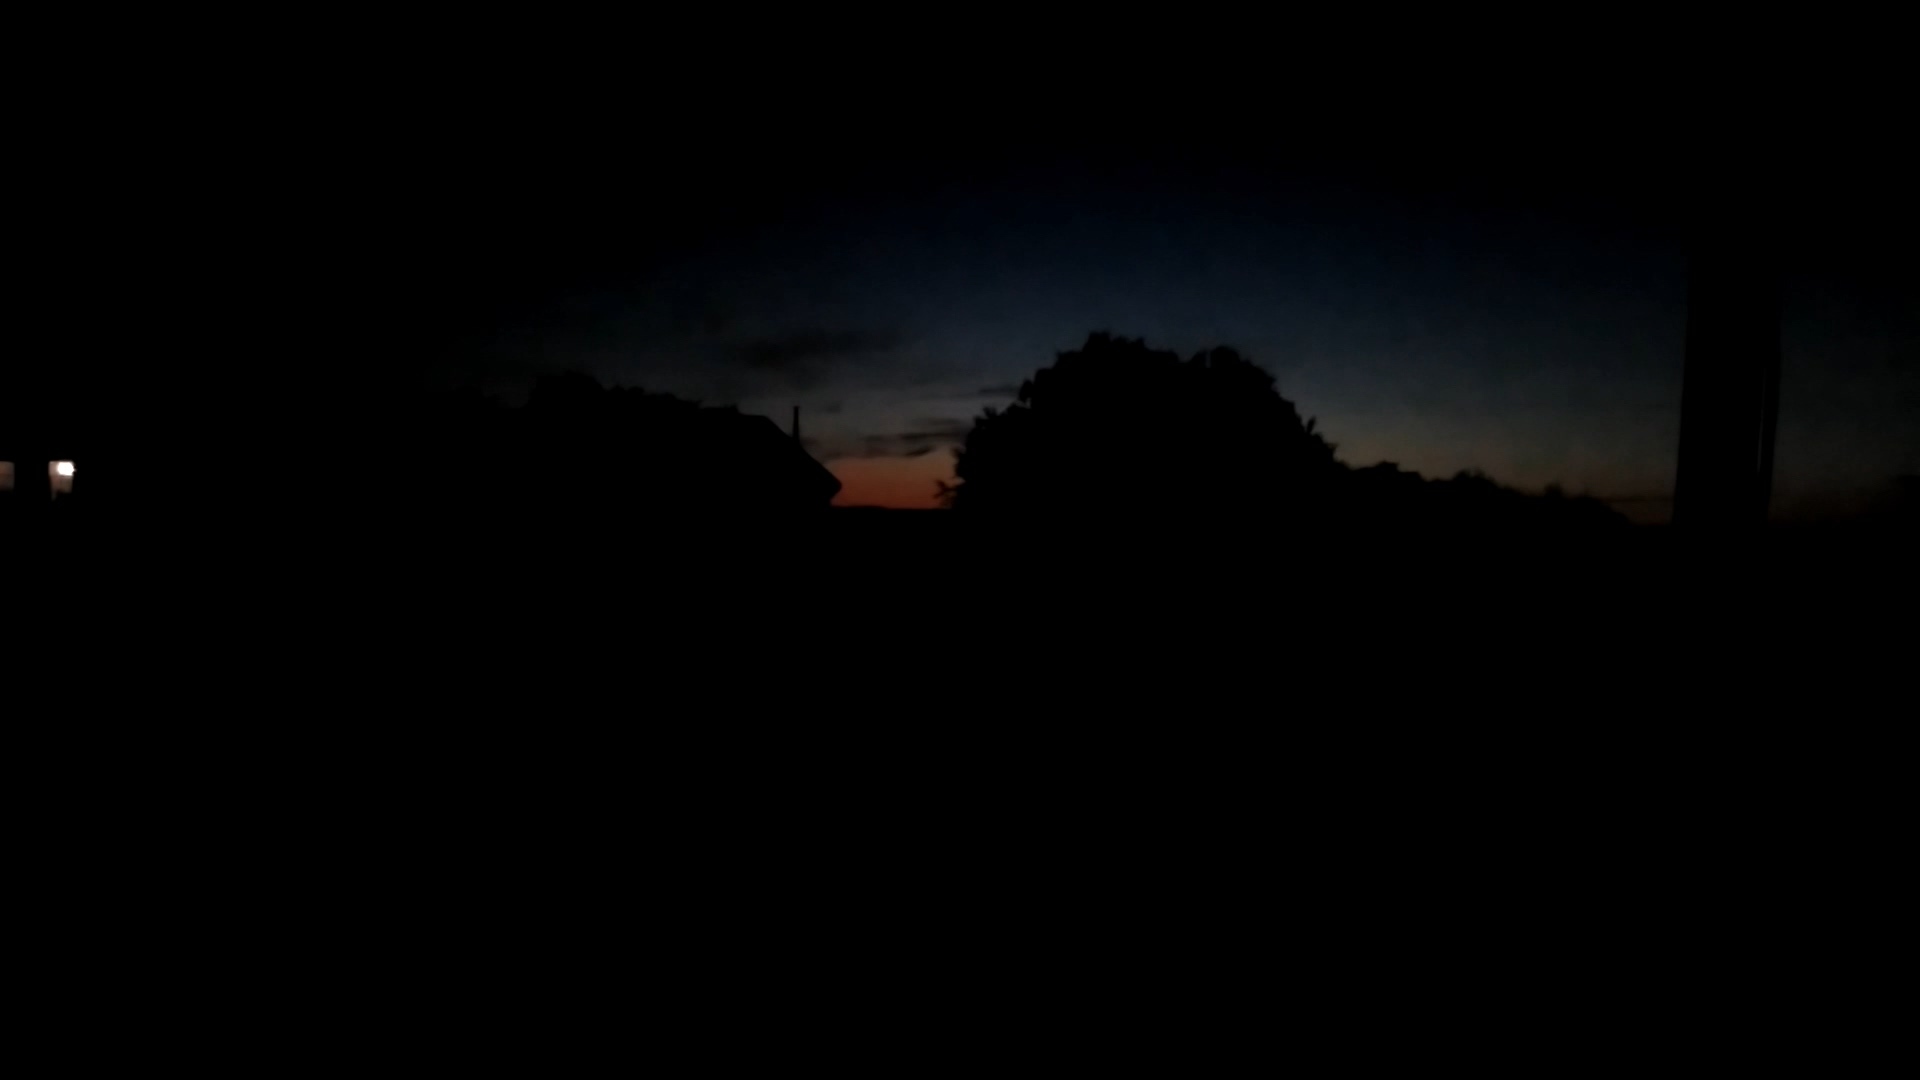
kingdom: Animalia
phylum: Chordata
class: Aves
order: Strigiformes
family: Strigidae
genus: Asio
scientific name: Asio otus
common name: Long-eared owl
